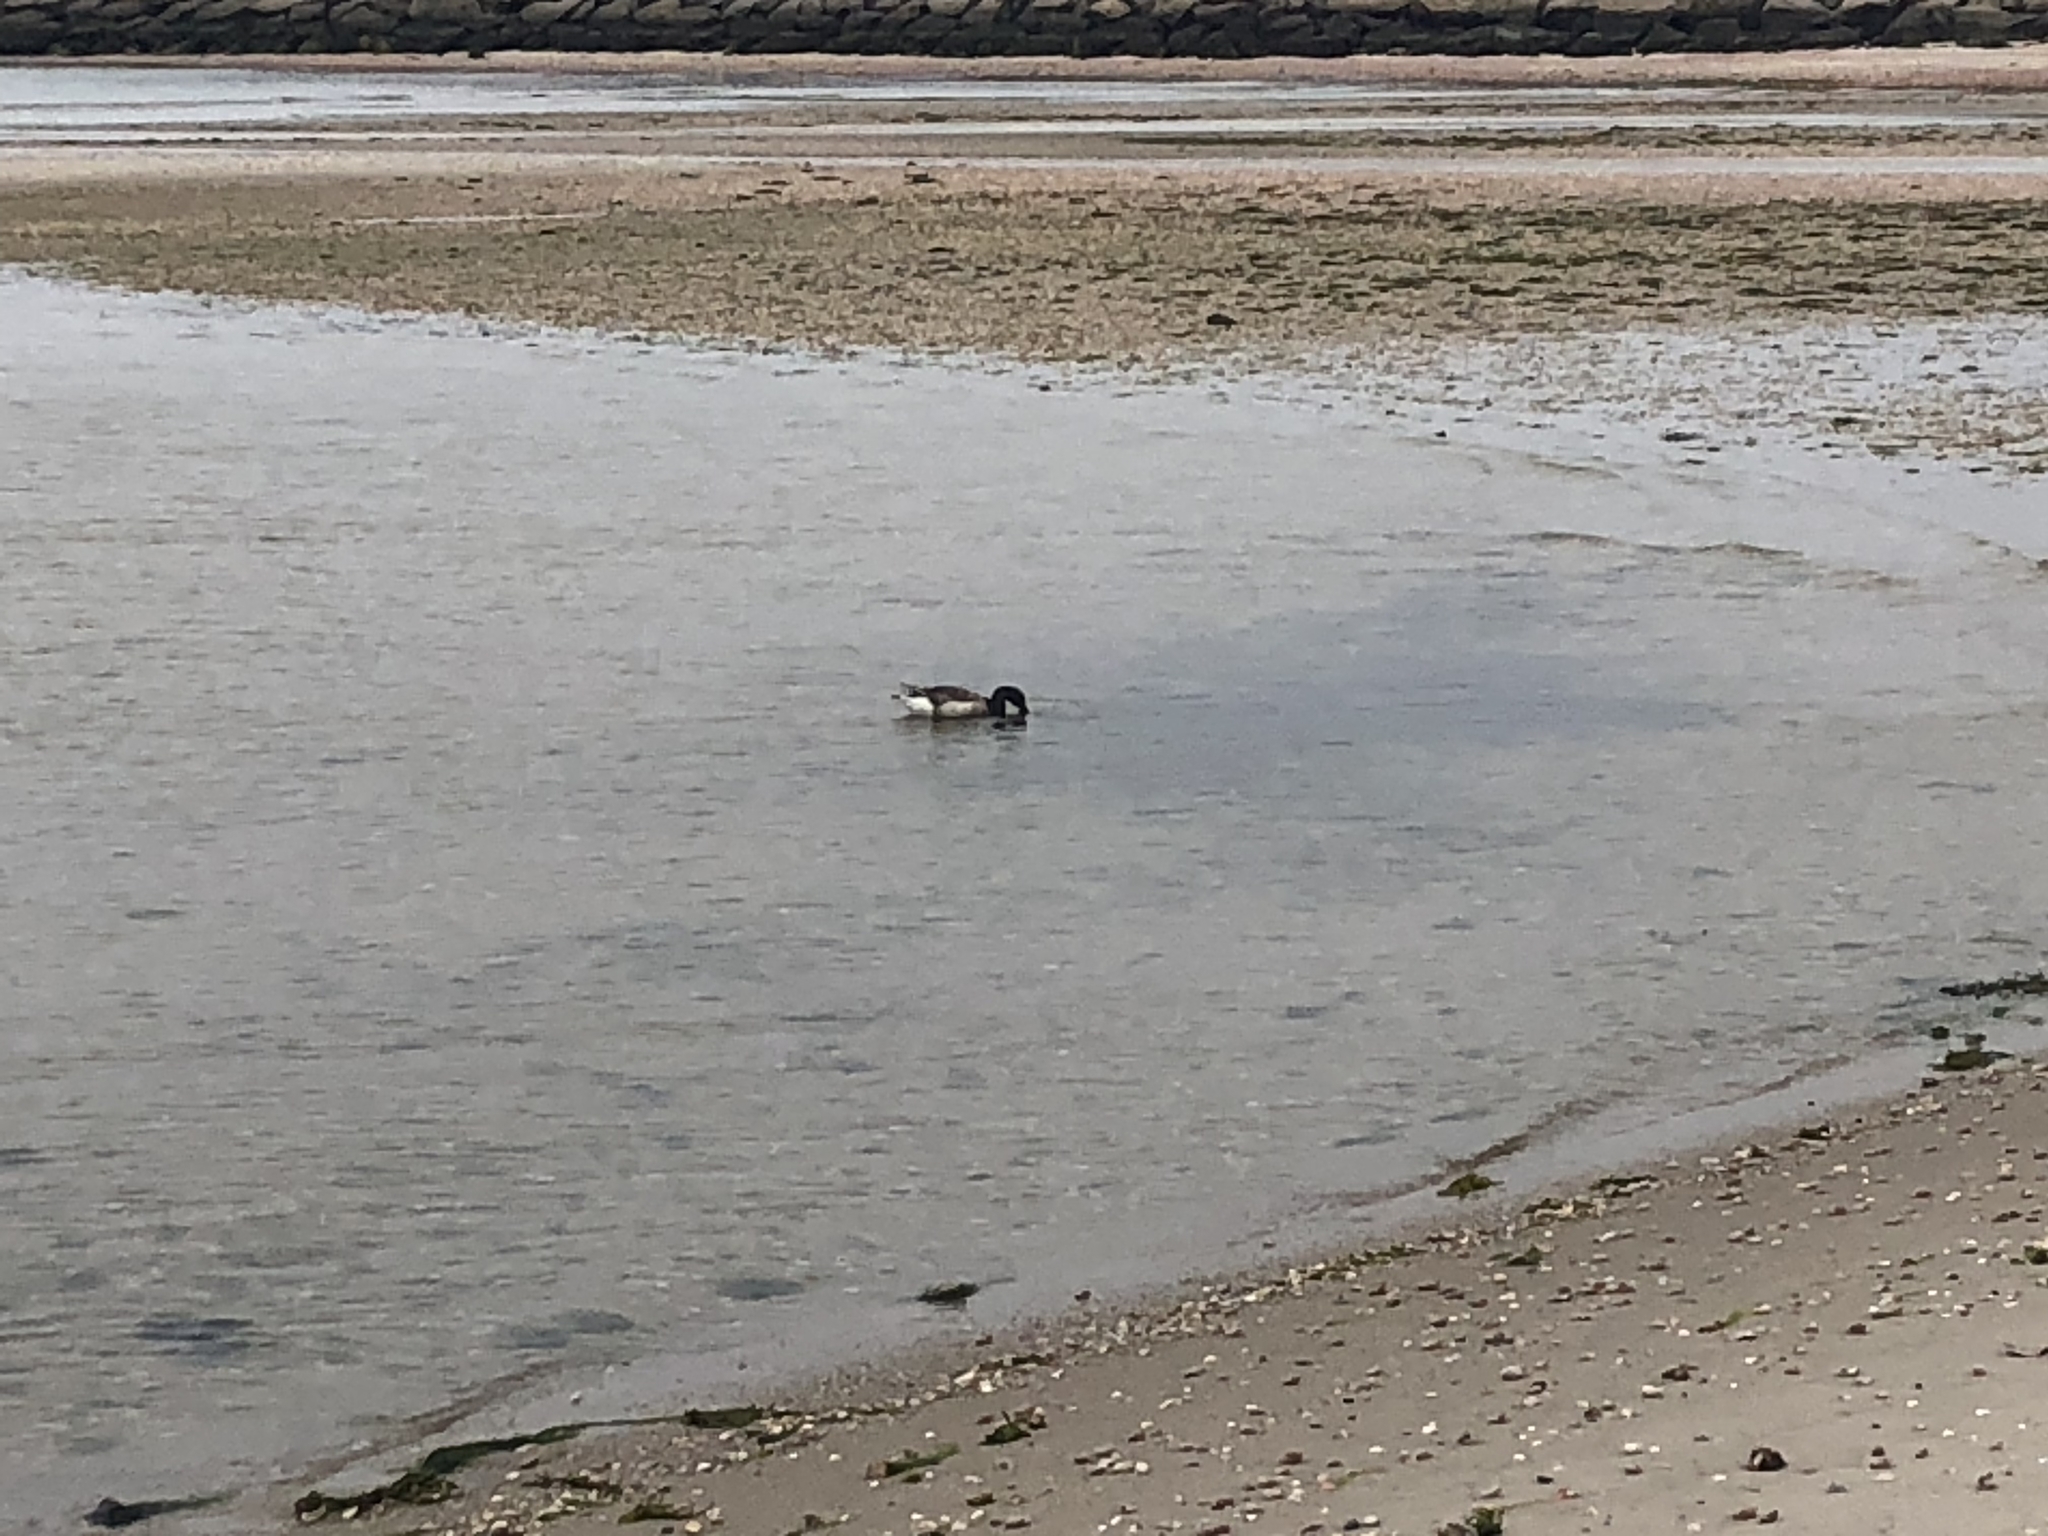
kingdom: Animalia
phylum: Chordata
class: Aves
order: Anseriformes
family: Anatidae
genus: Branta
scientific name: Branta bernicla
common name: Brant goose
